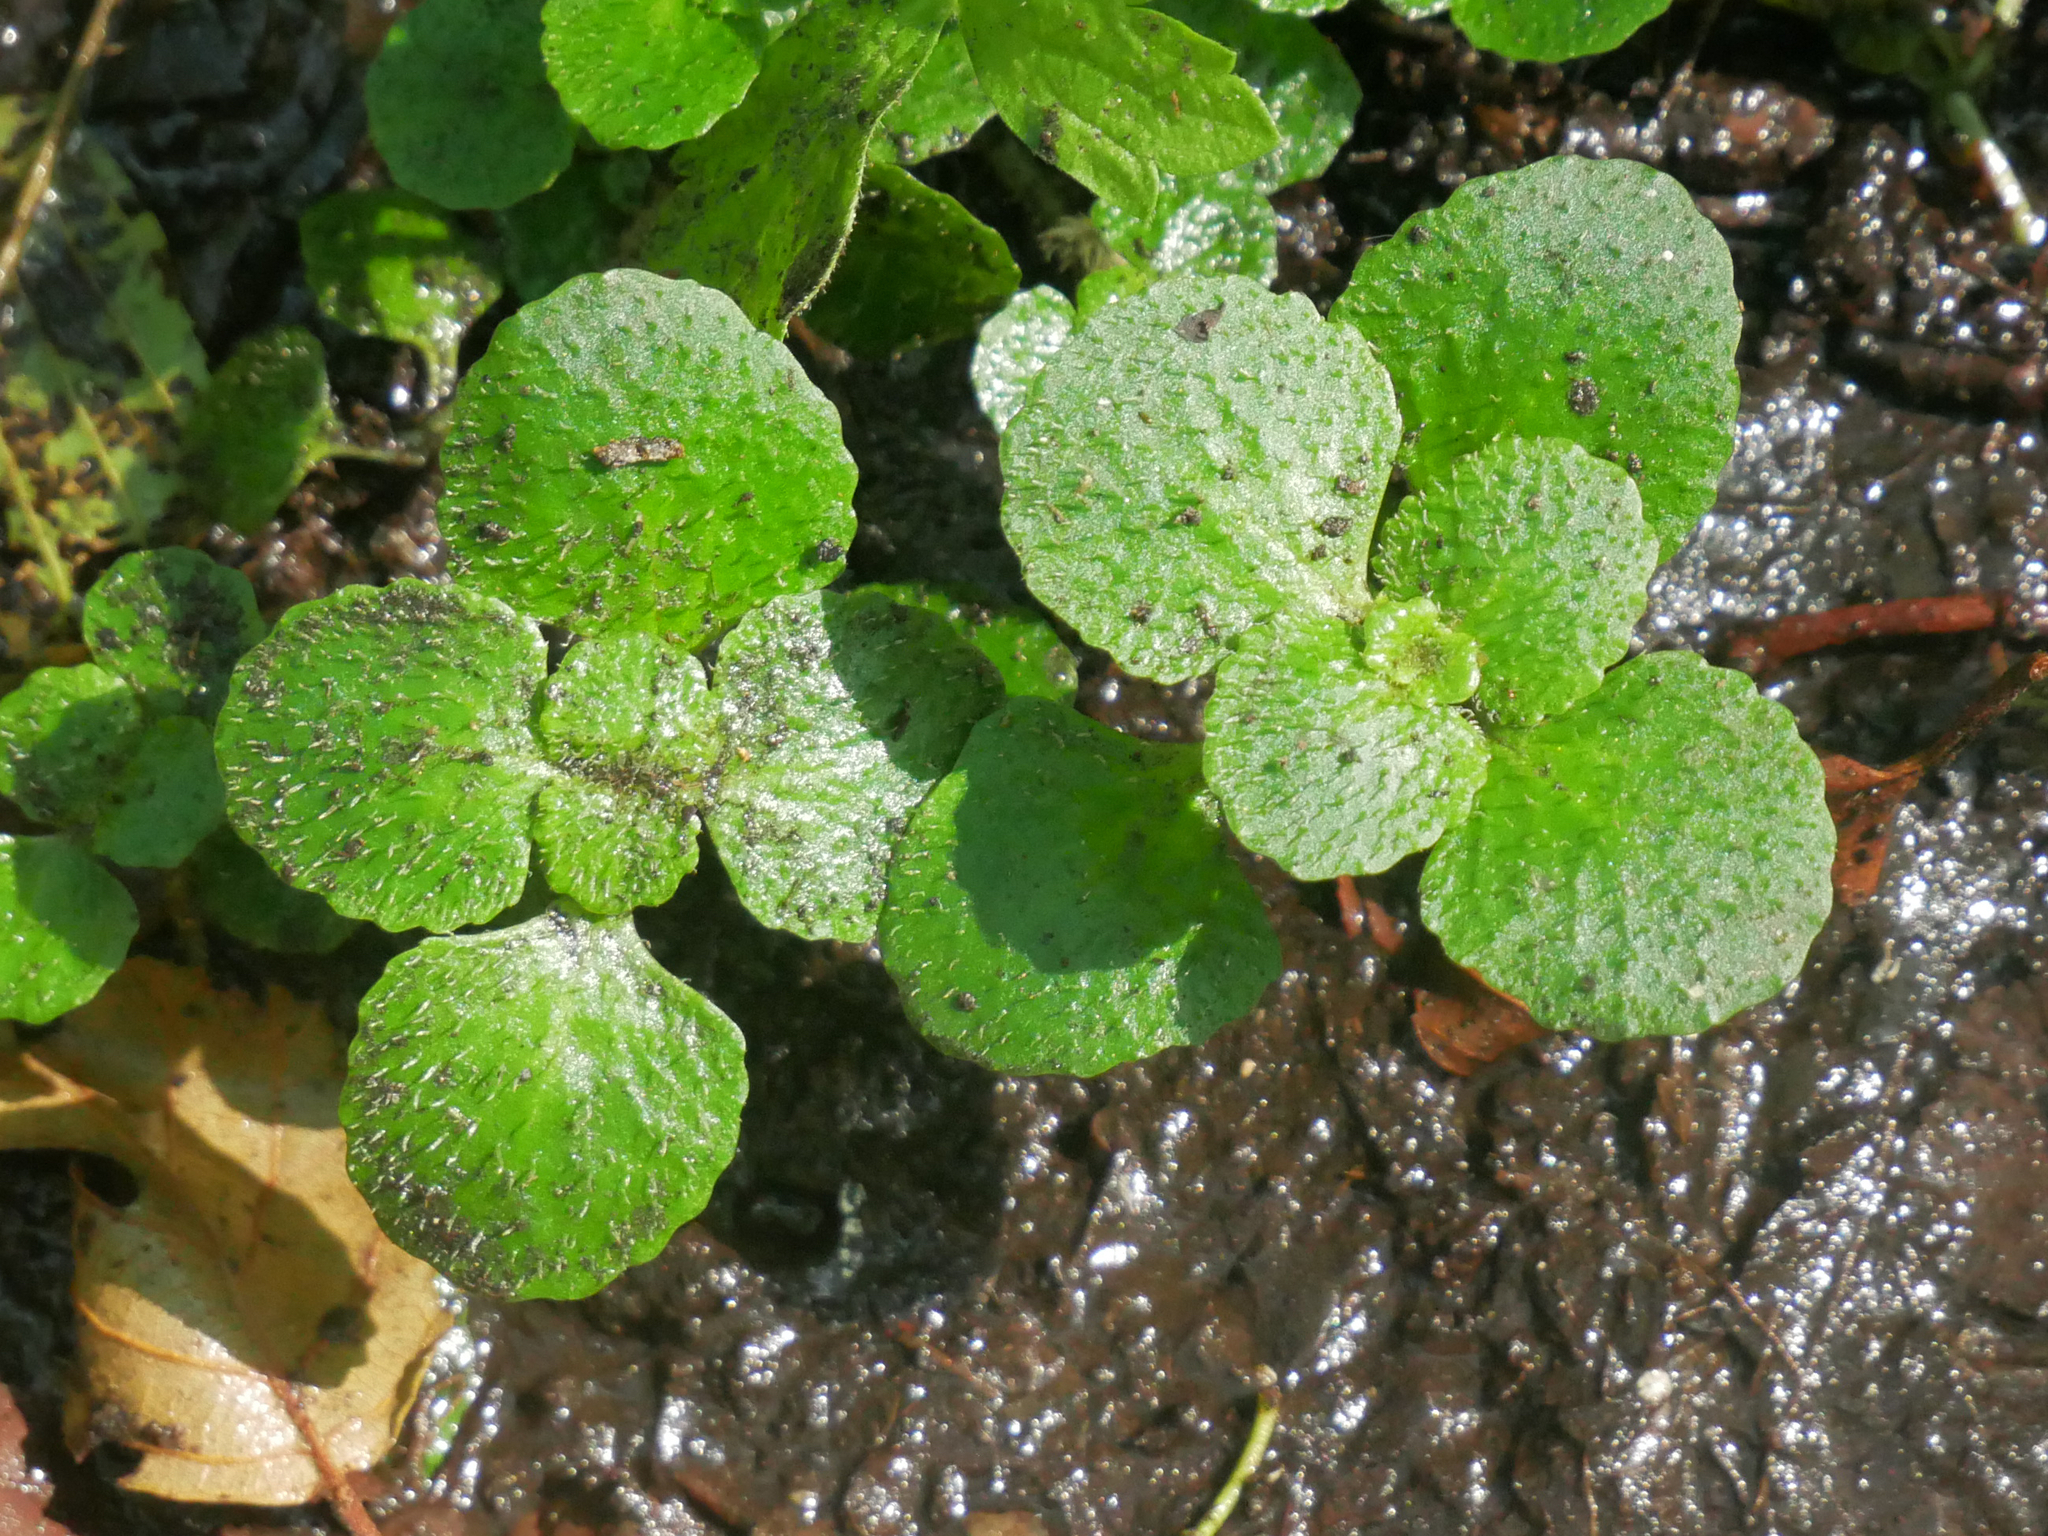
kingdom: Plantae
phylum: Tracheophyta
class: Magnoliopsida
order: Saxifragales
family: Saxifragaceae
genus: Chrysosplenium
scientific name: Chrysosplenium oppositifolium
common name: Opposite-leaved golden-saxifrage
